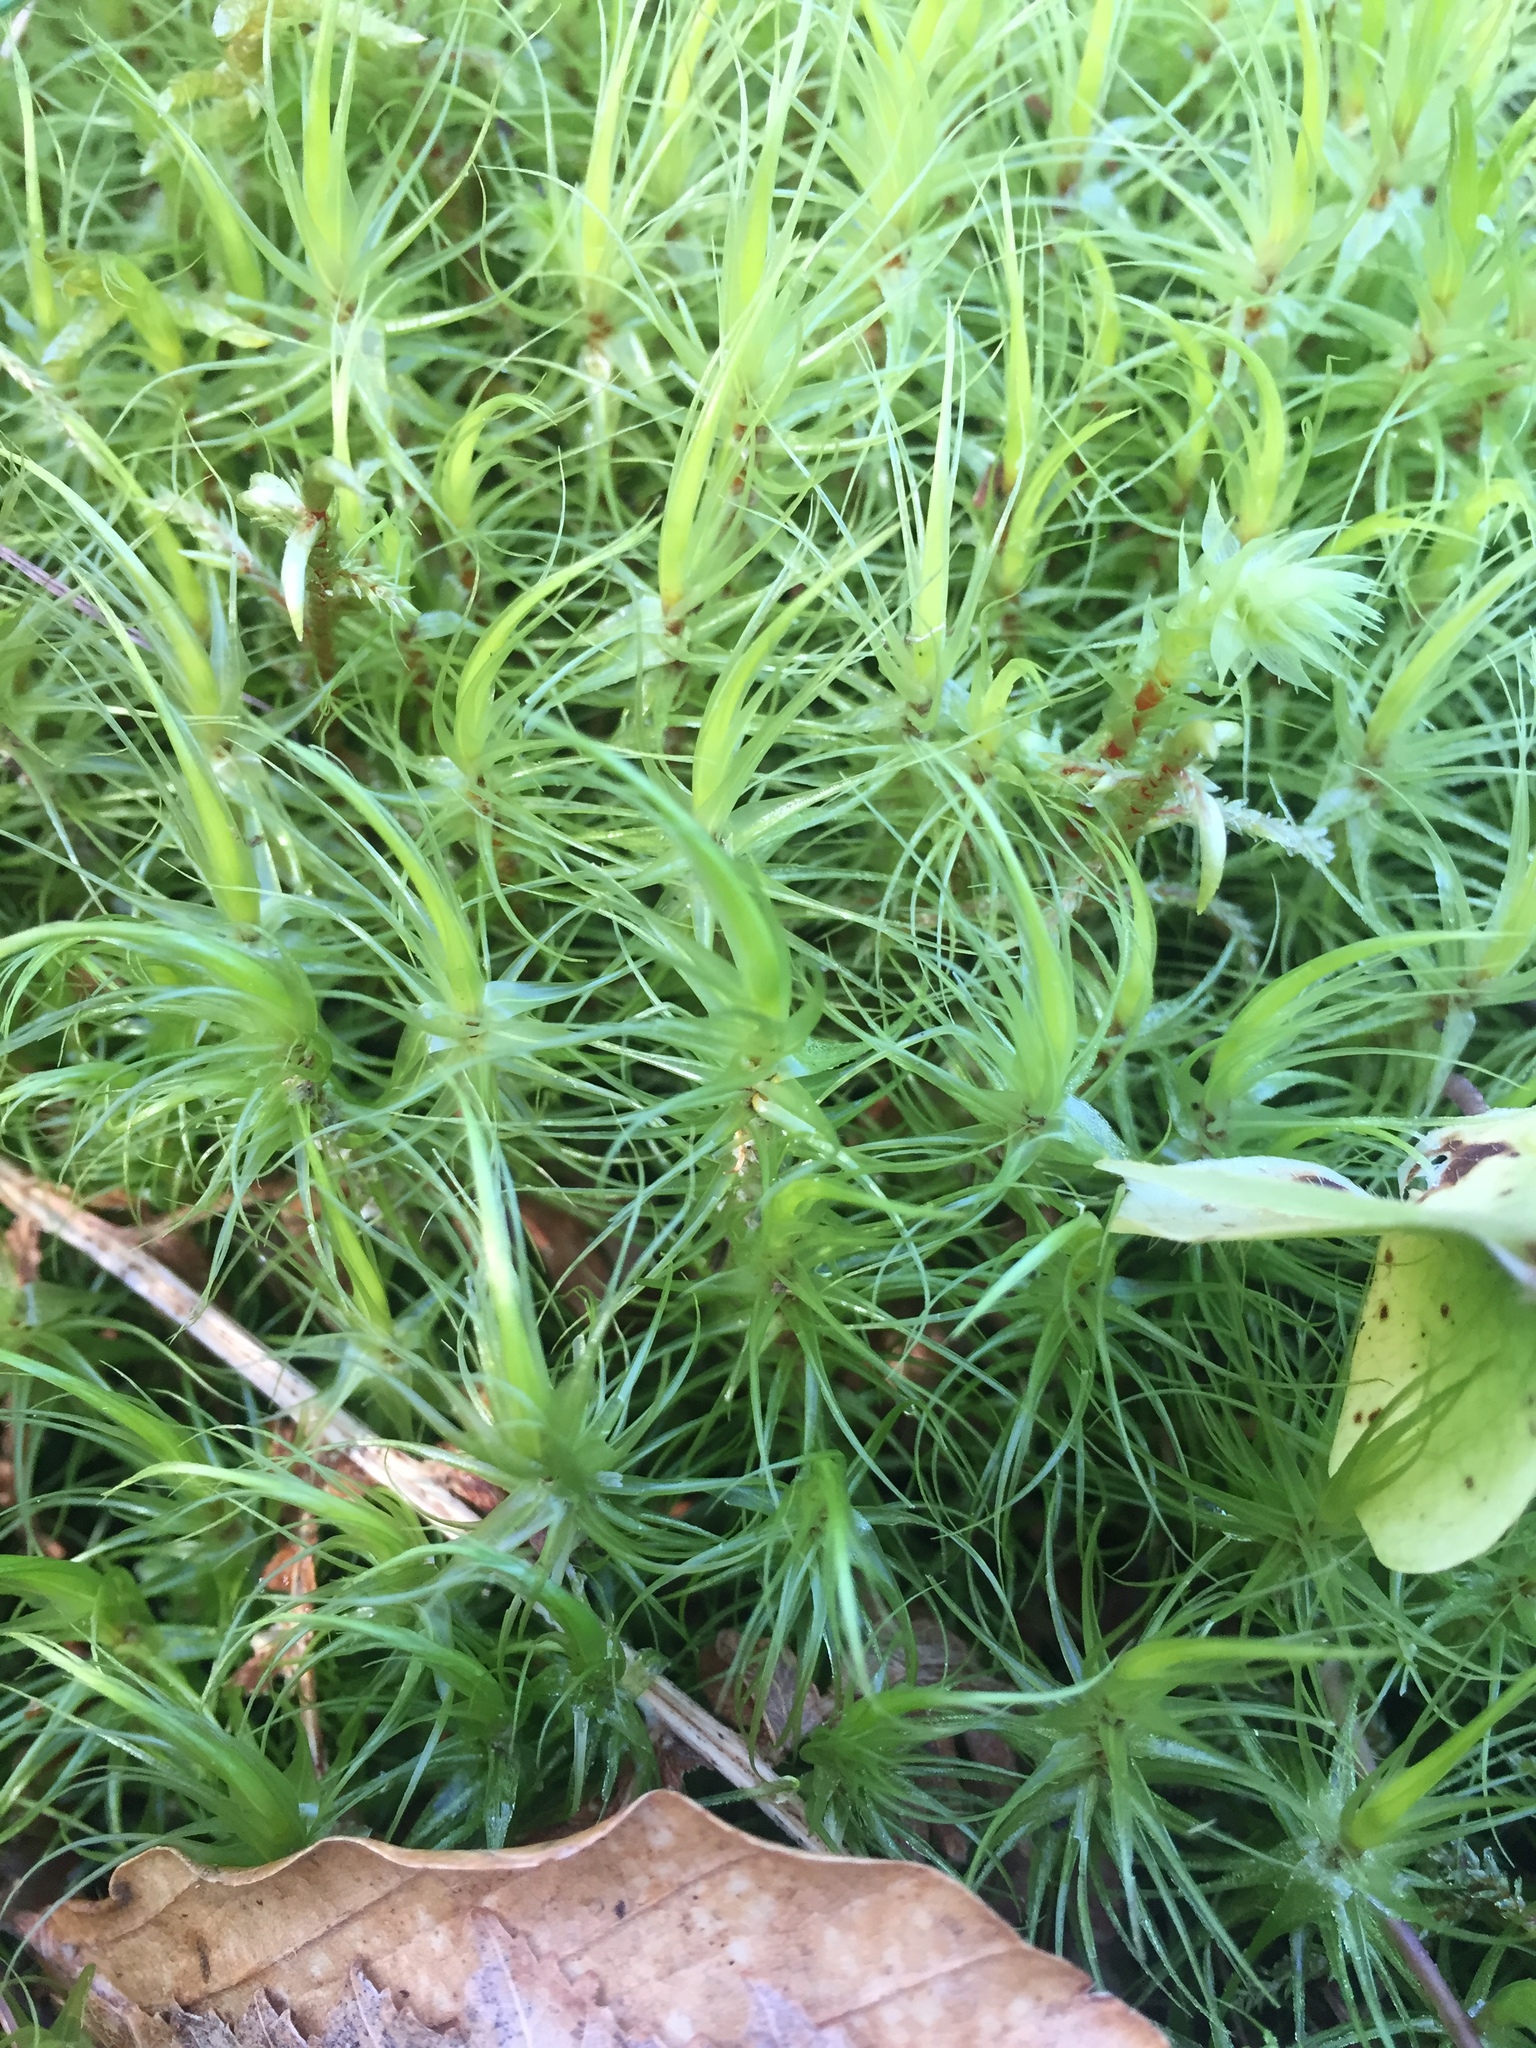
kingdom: Plantae
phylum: Bryophyta
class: Bryopsida
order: Dicranales
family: Dicranaceae
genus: Dicranum
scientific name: Dicranum scoparium
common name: Broom fork-moss
